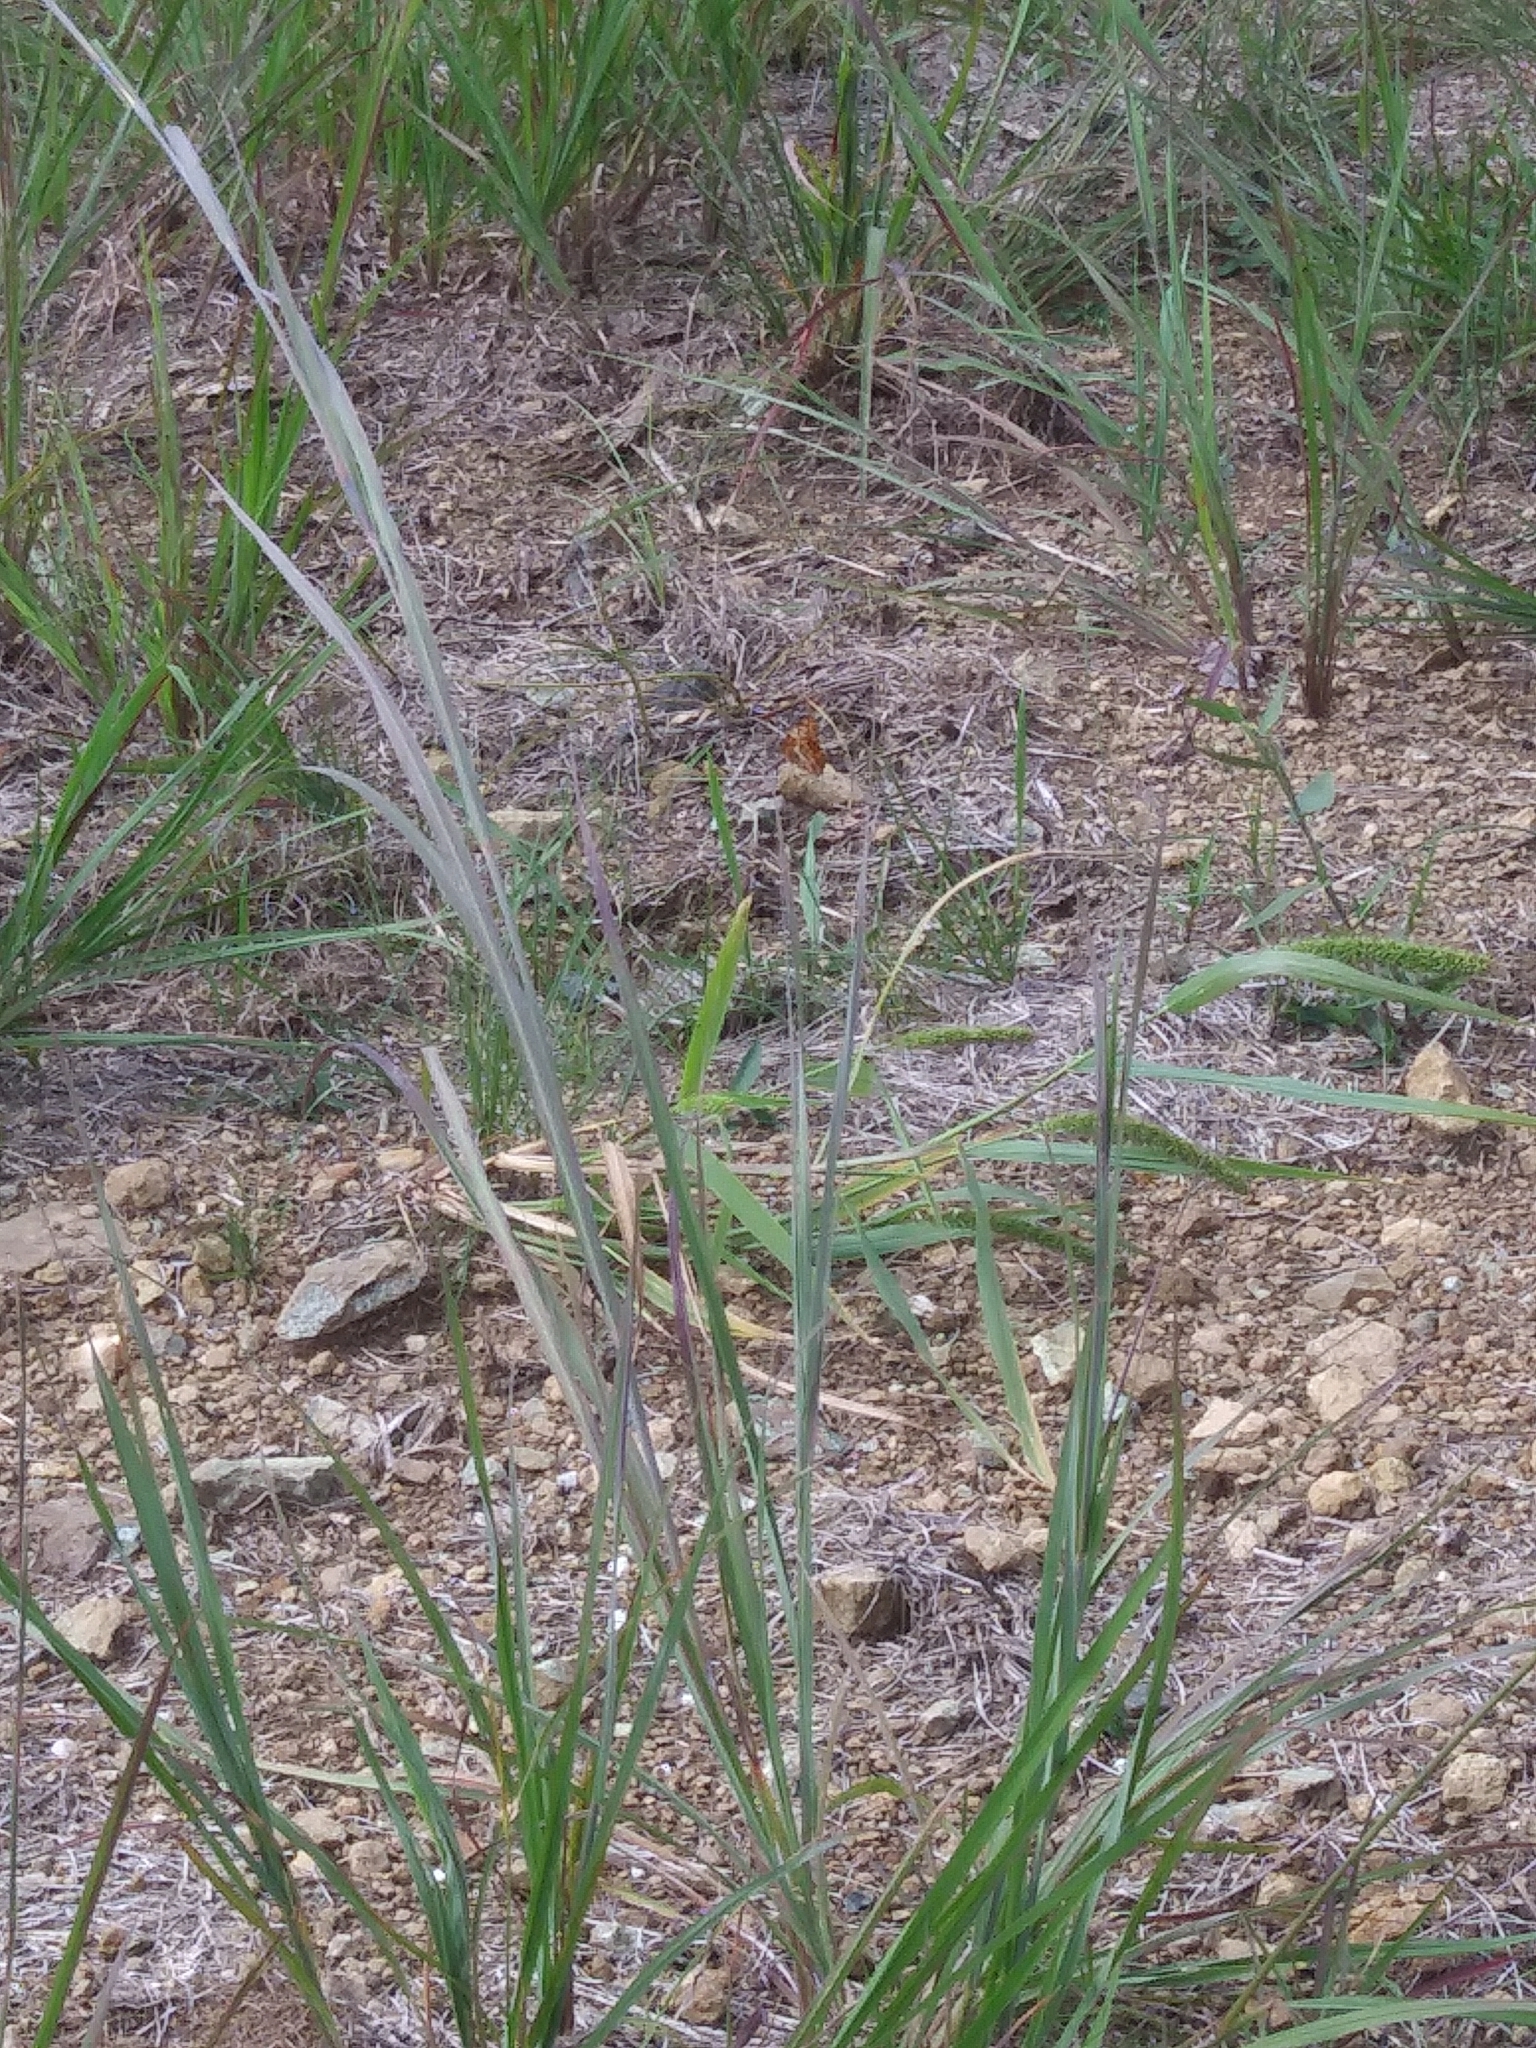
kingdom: Animalia
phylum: Arthropoda
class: Insecta
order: Lepidoptera
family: Nymphalidae
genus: Euptoieta
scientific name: Euptoieta claudia
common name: Variegated fritillary
